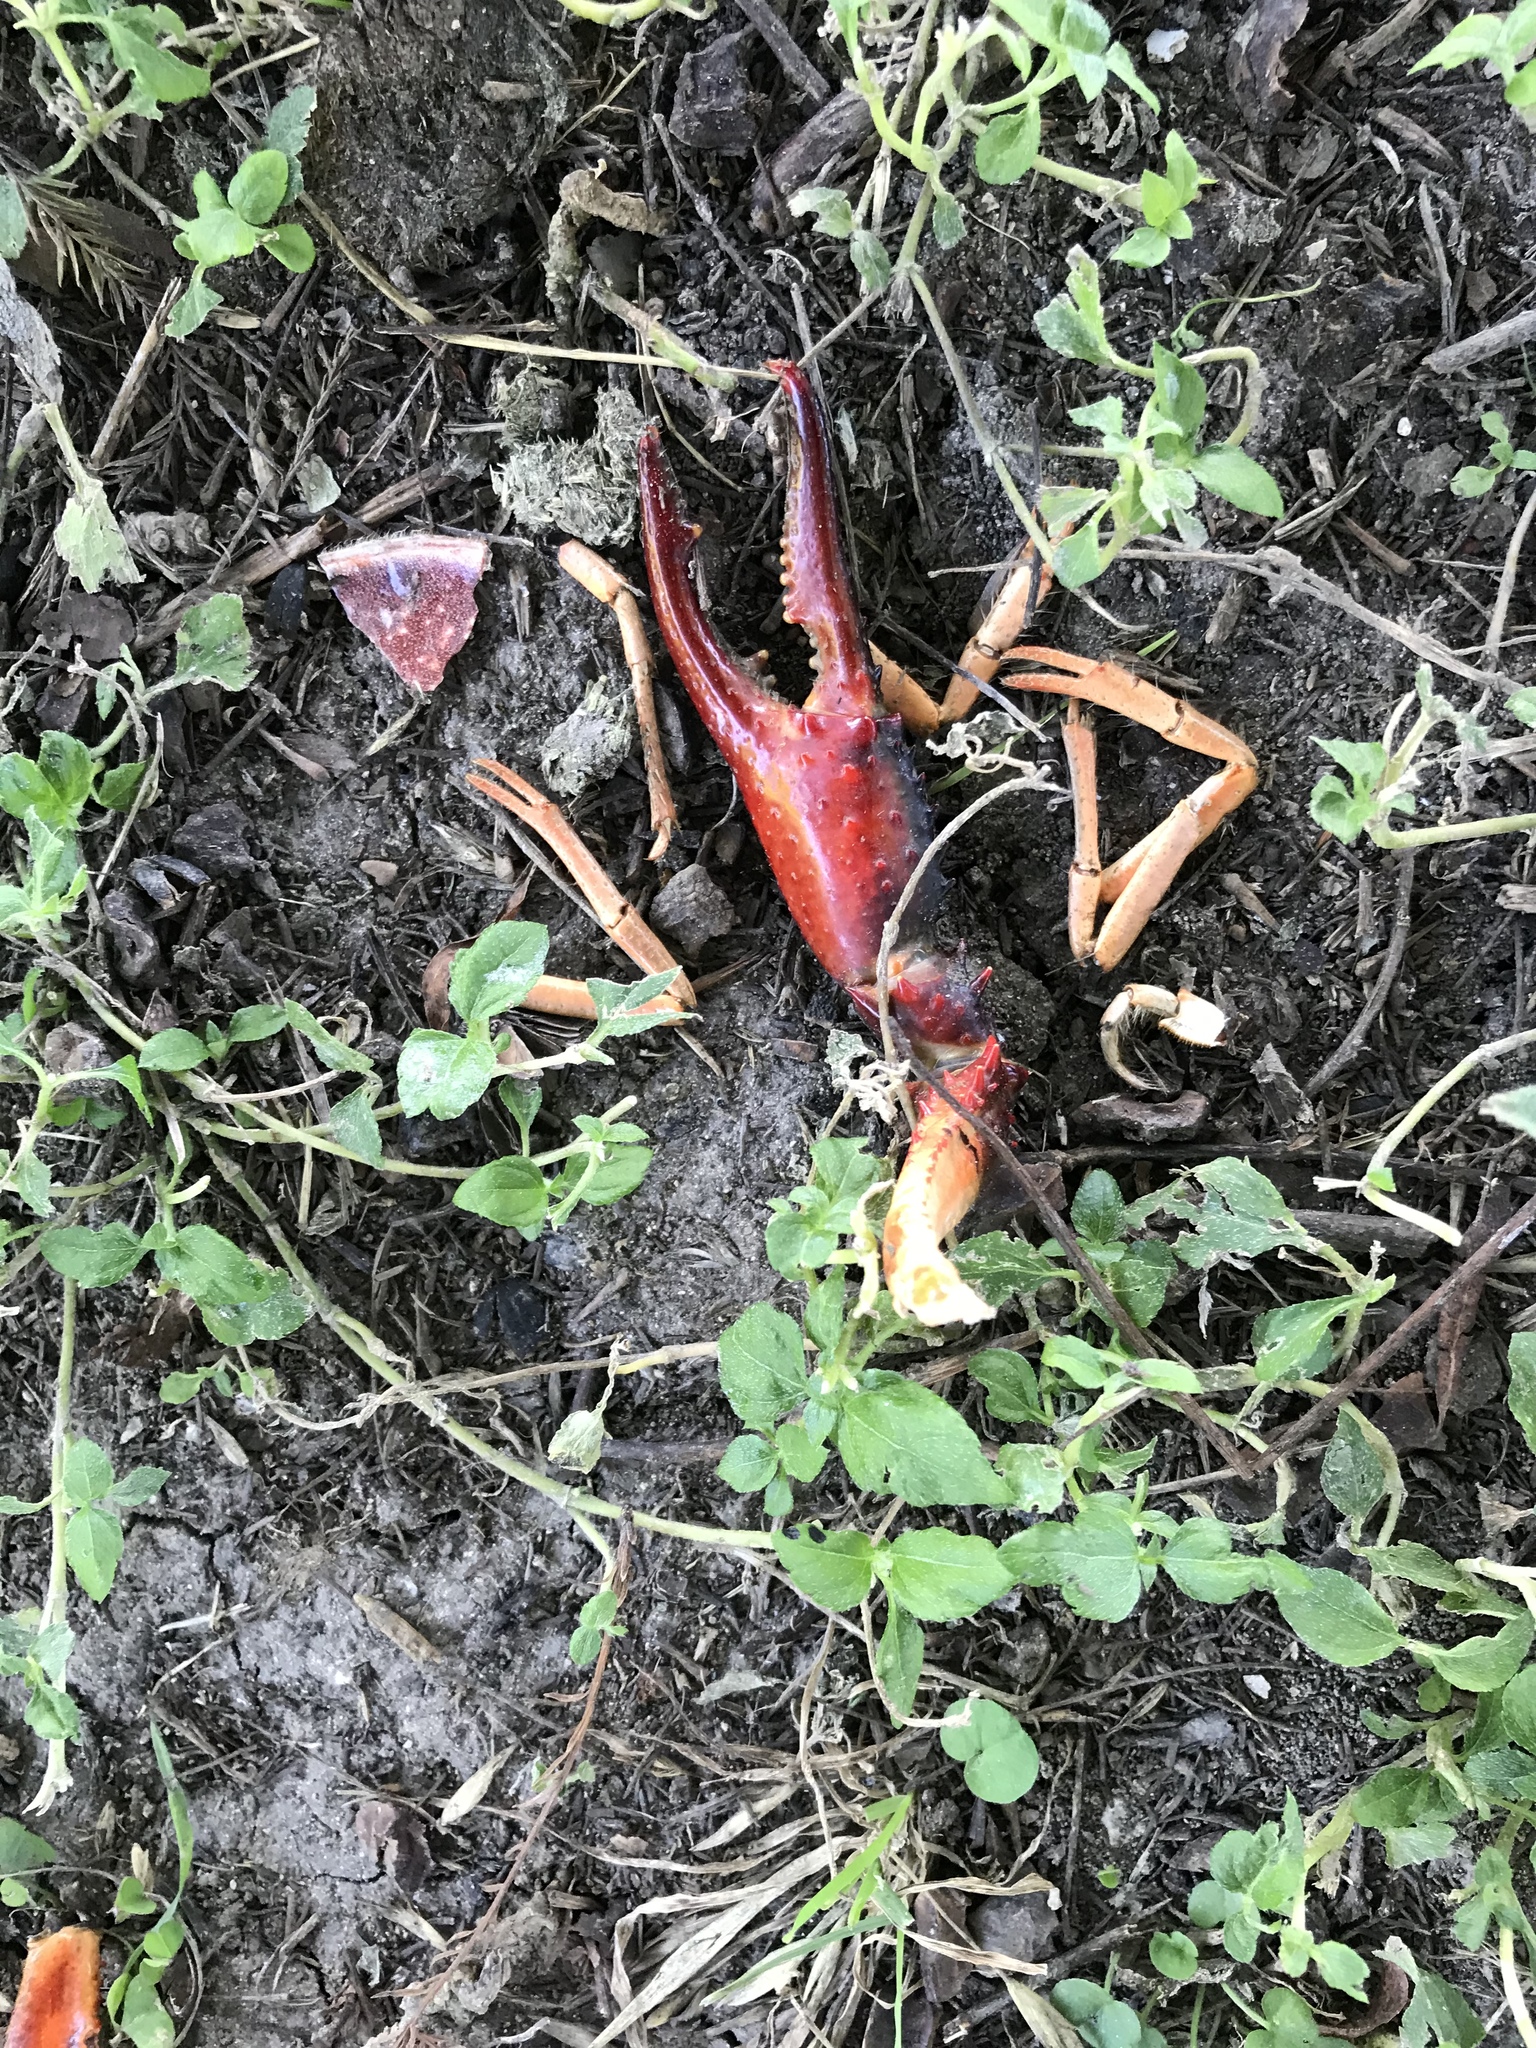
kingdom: Animalia
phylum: Arthropoda
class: Malacostraca
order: Decapoda
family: Cambaridae
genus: Procambarus
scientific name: Procambarus clarkii
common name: Red swamp crayfish
